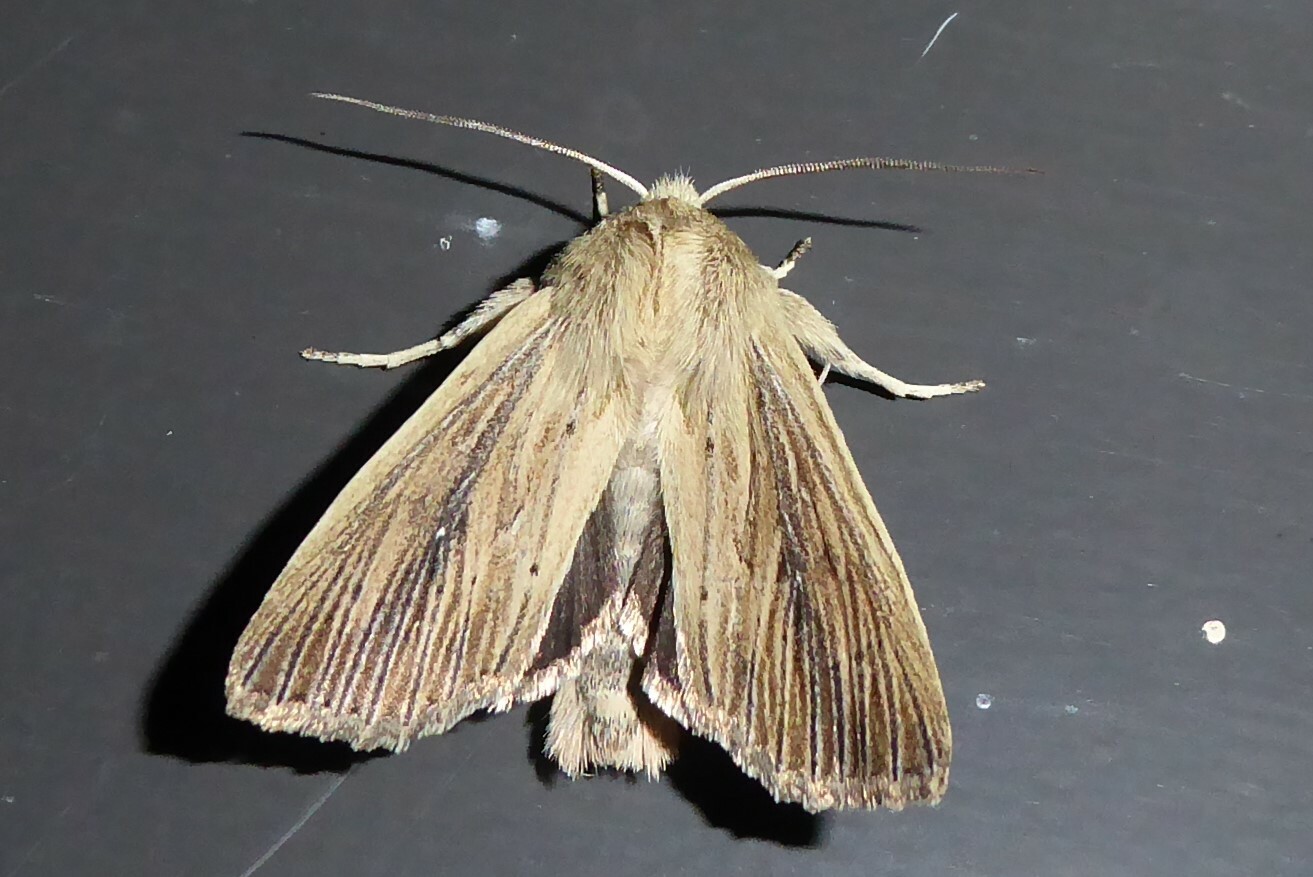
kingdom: Animalia
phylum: Arthropoda
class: Insecta
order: Lepidoptera
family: Noctuidae
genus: Ichneutica
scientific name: Ichneutica arotis
